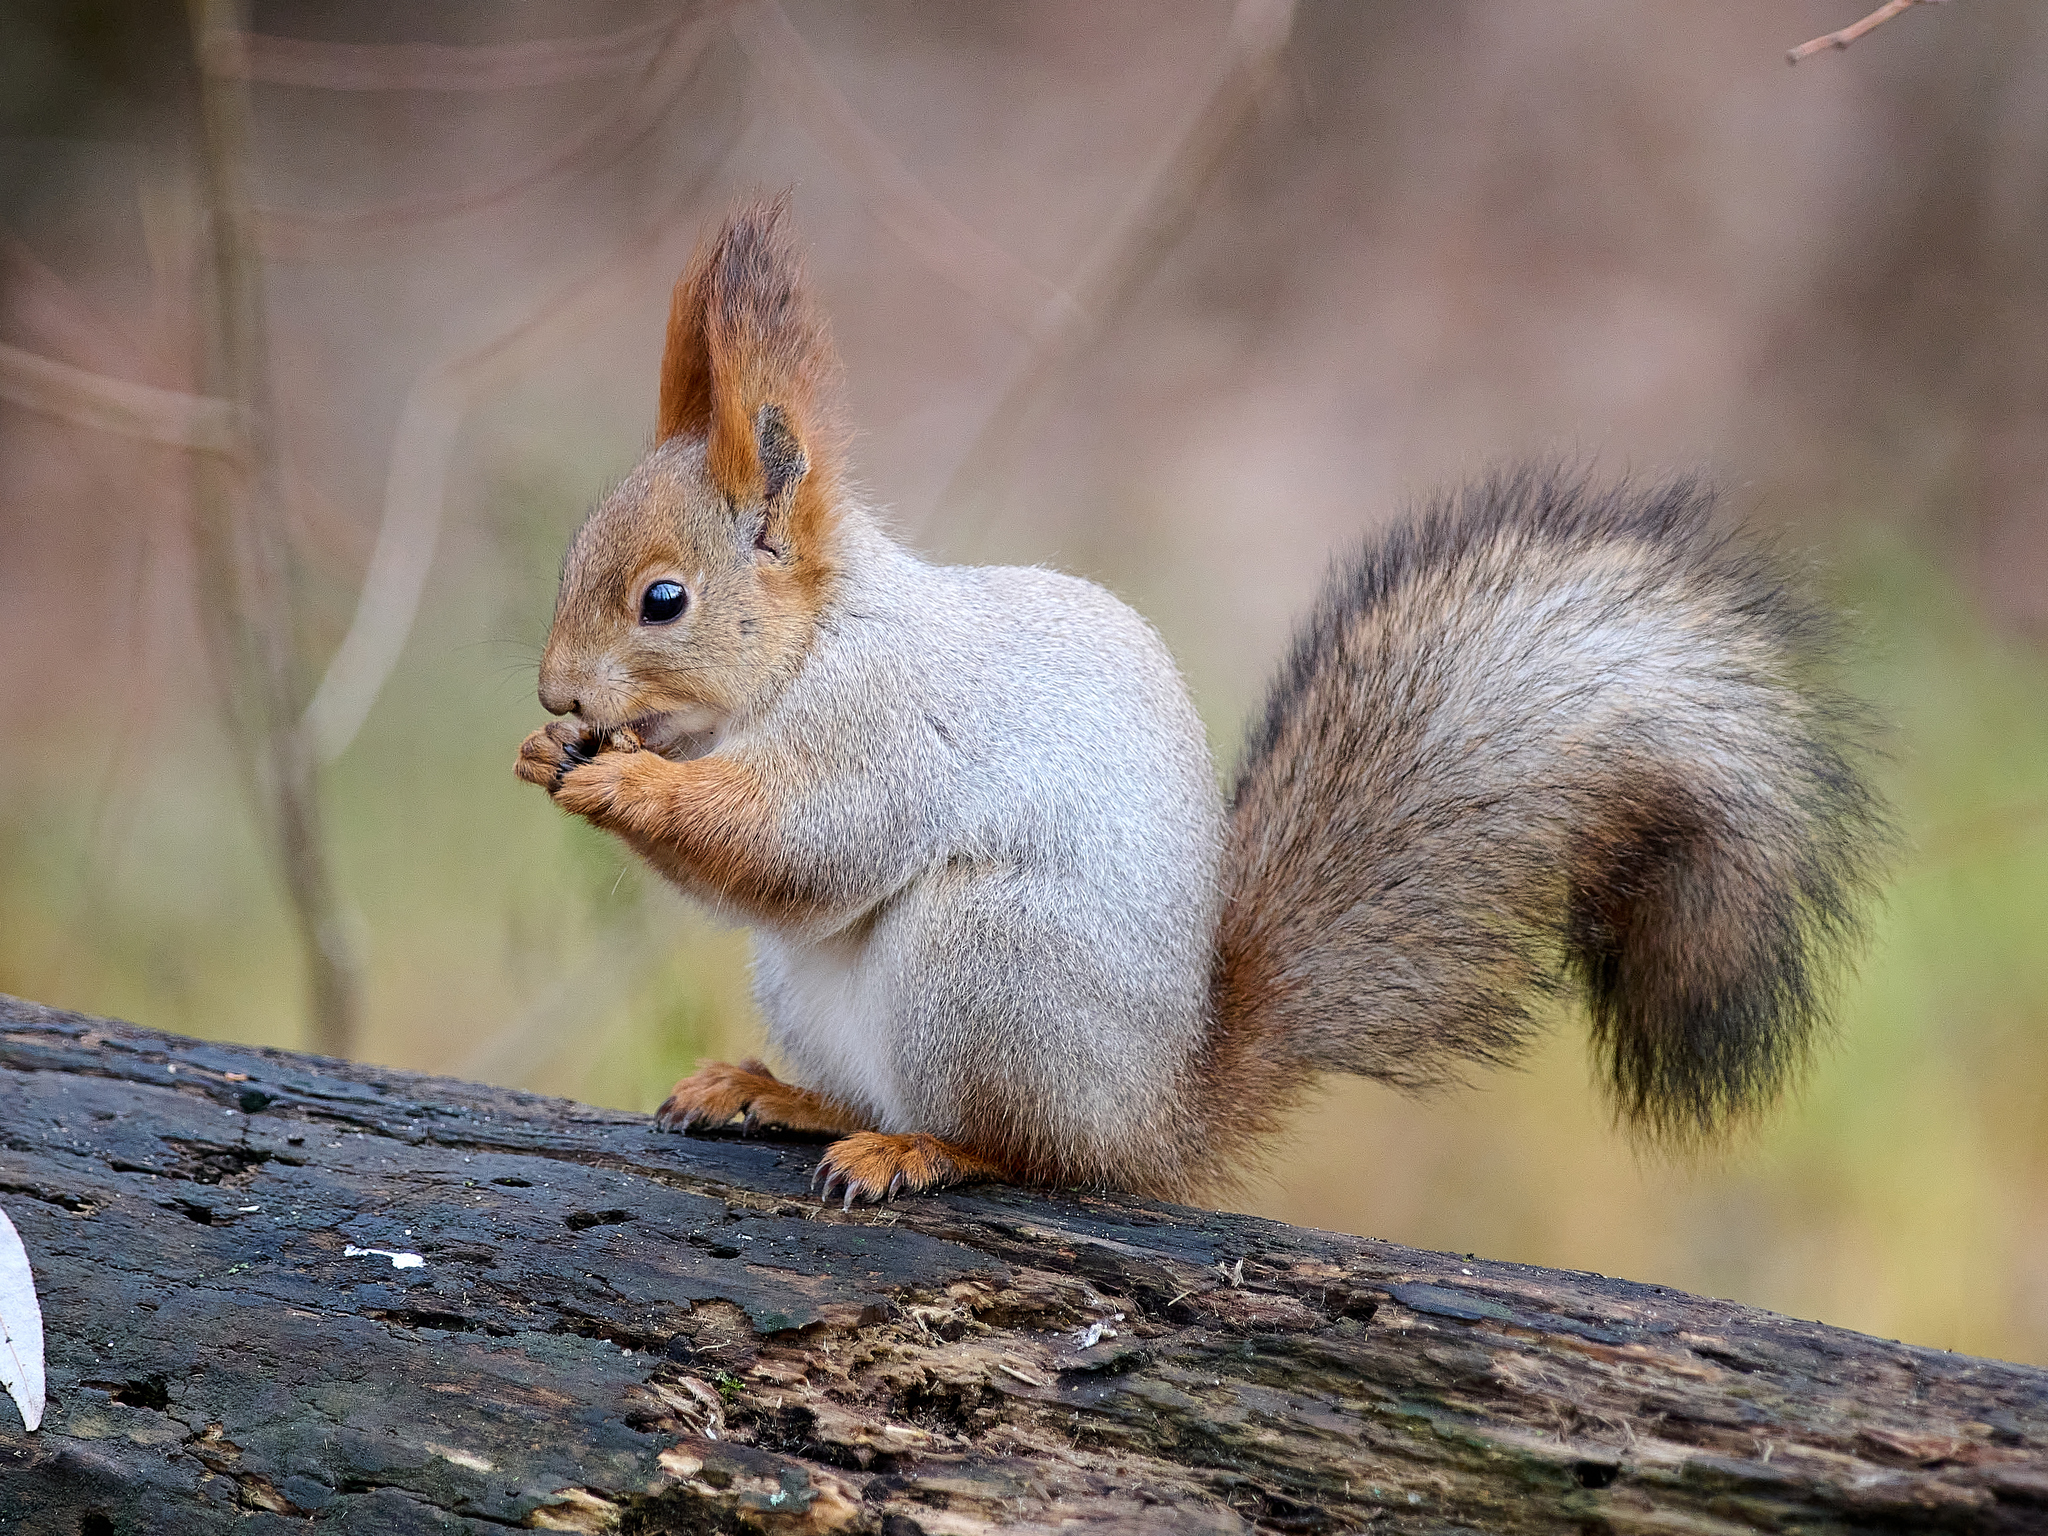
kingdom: Animalia
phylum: Chordata
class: Mammalia
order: Rodentia
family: Sciuridae
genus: Sciurus
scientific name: Sciurus vulgaris
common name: Eurasian red squirrel
